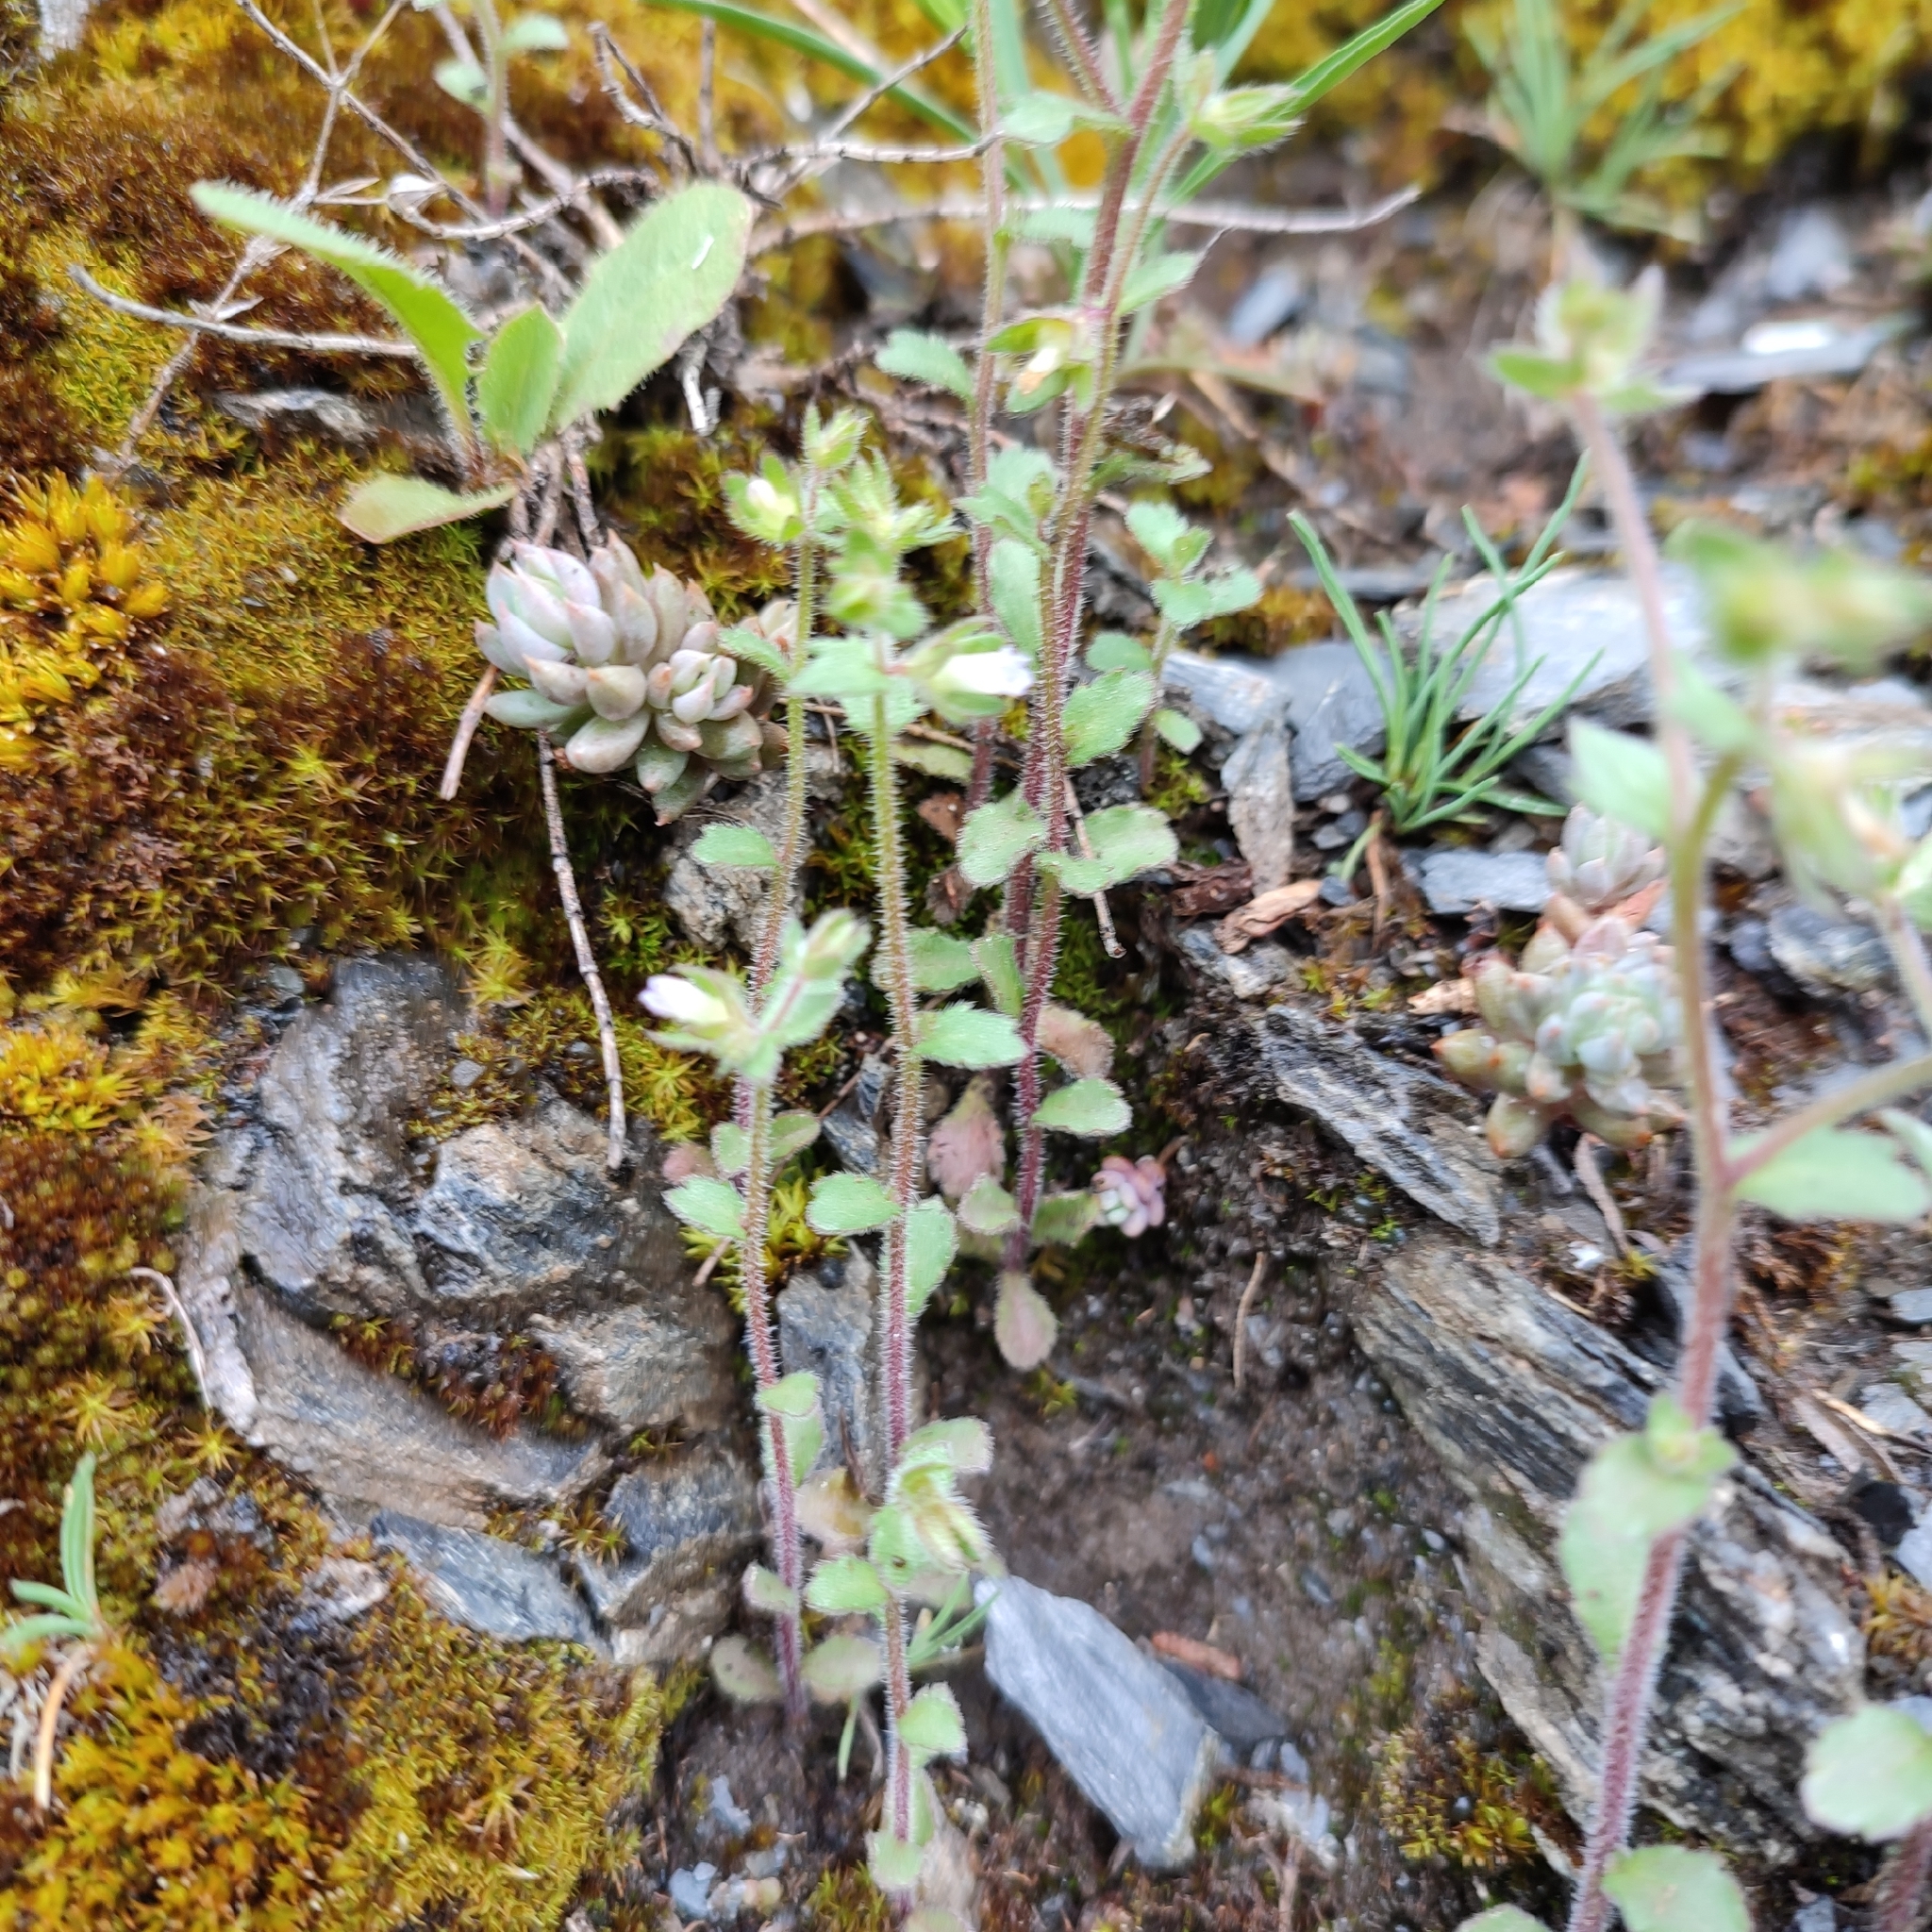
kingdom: Plantae
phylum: Tracheophyta
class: Magnoliopsida
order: Asterales
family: Campanulaceae
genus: Campanula
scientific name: Campanula erinus
